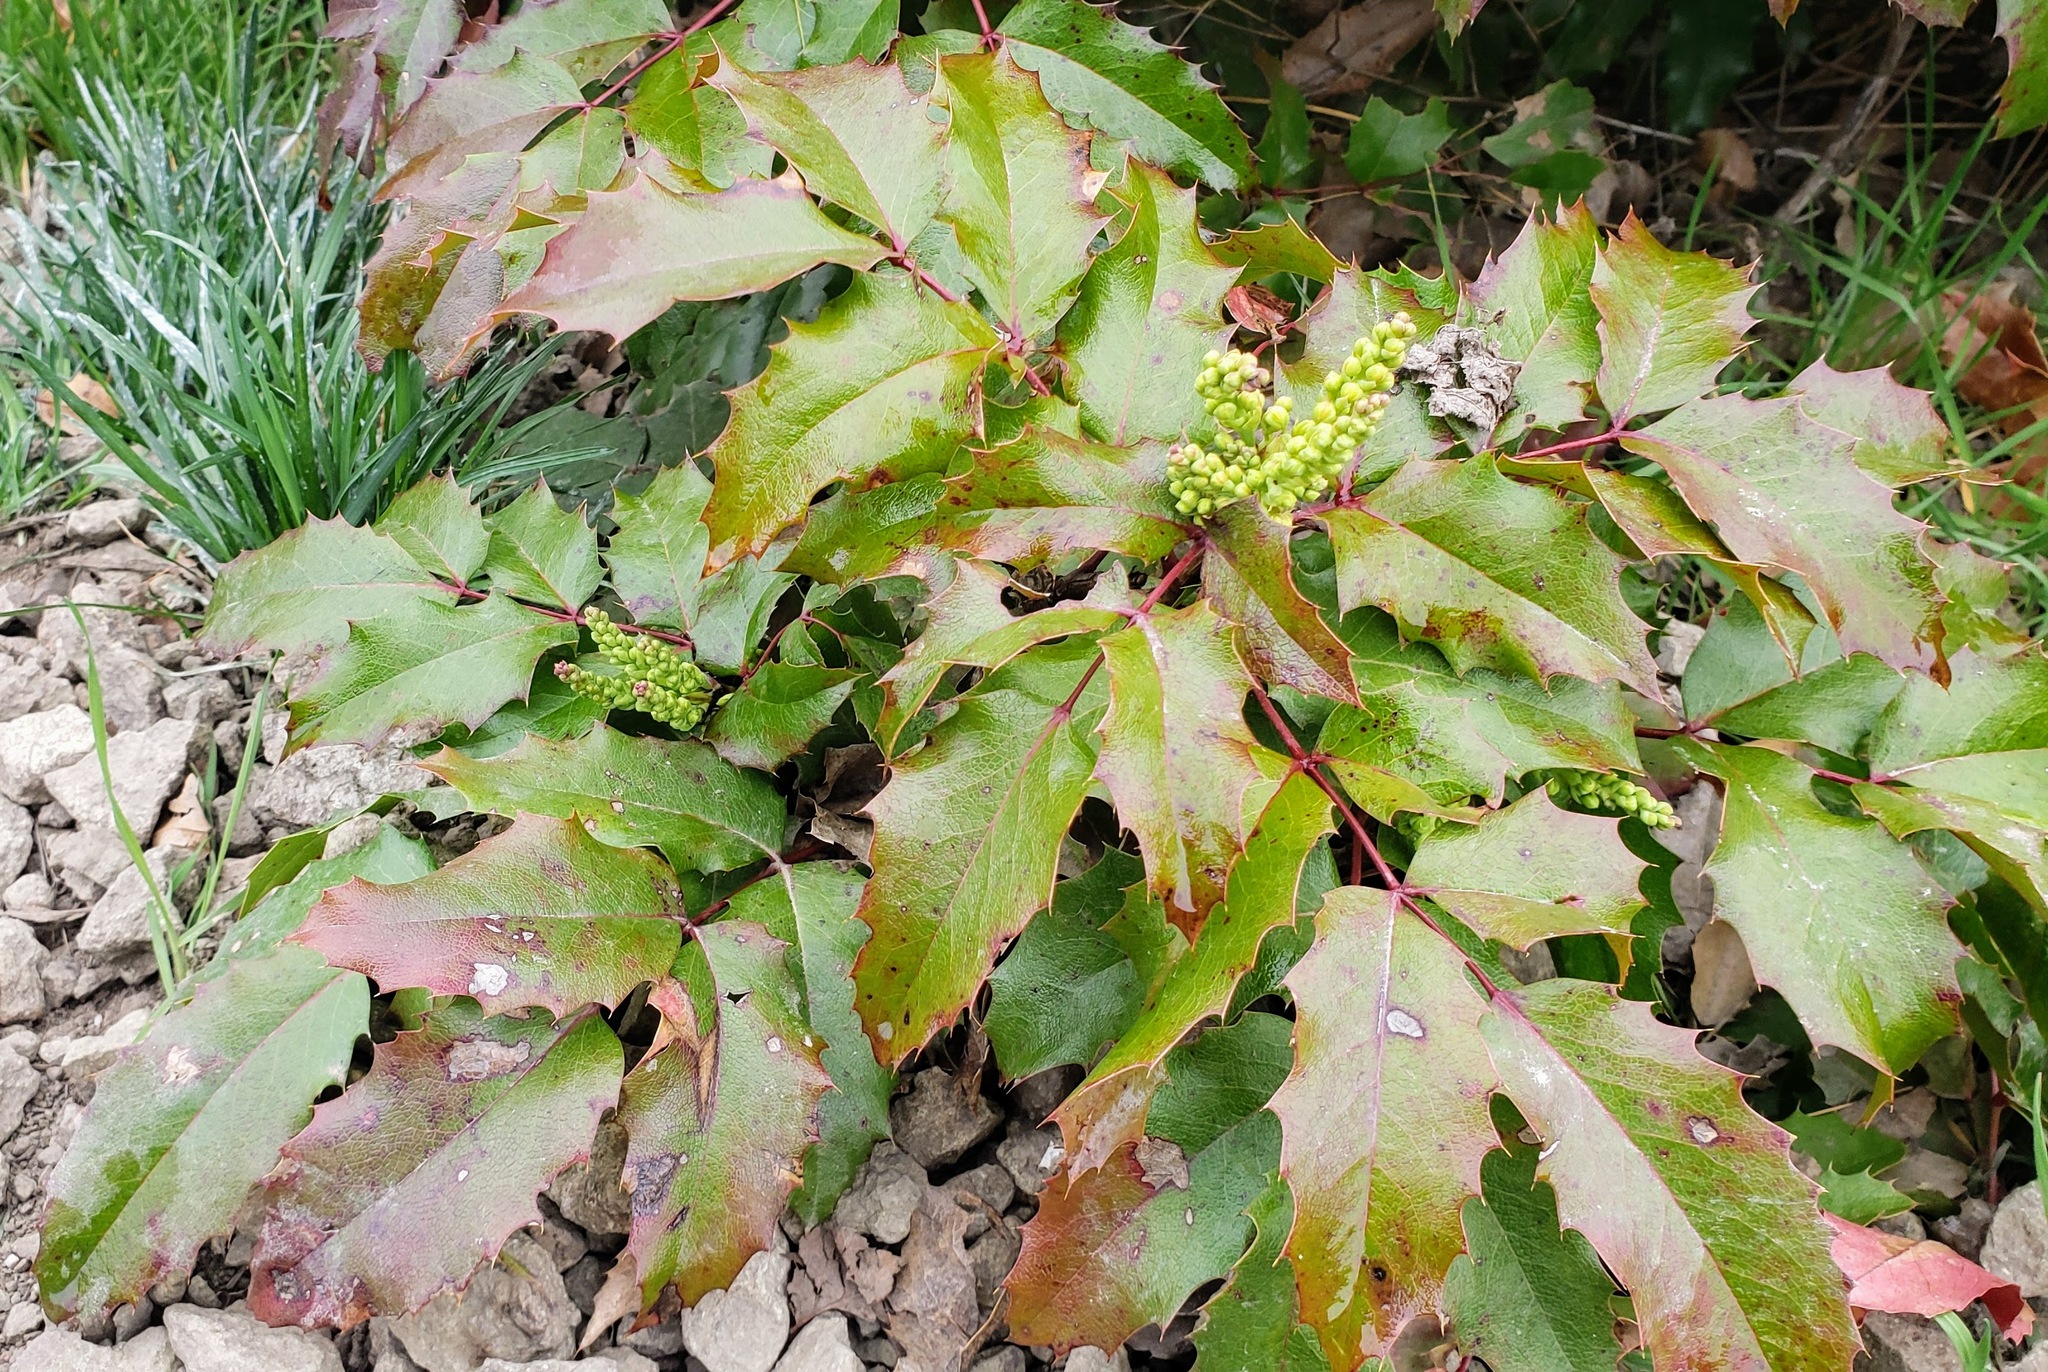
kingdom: Plantae
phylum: Tracheophyta
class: Magnoliopsida
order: Ranunculales
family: Berberidaceae
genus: Mahonia
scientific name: Mahonia aquifolium
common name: Oregon-grape
